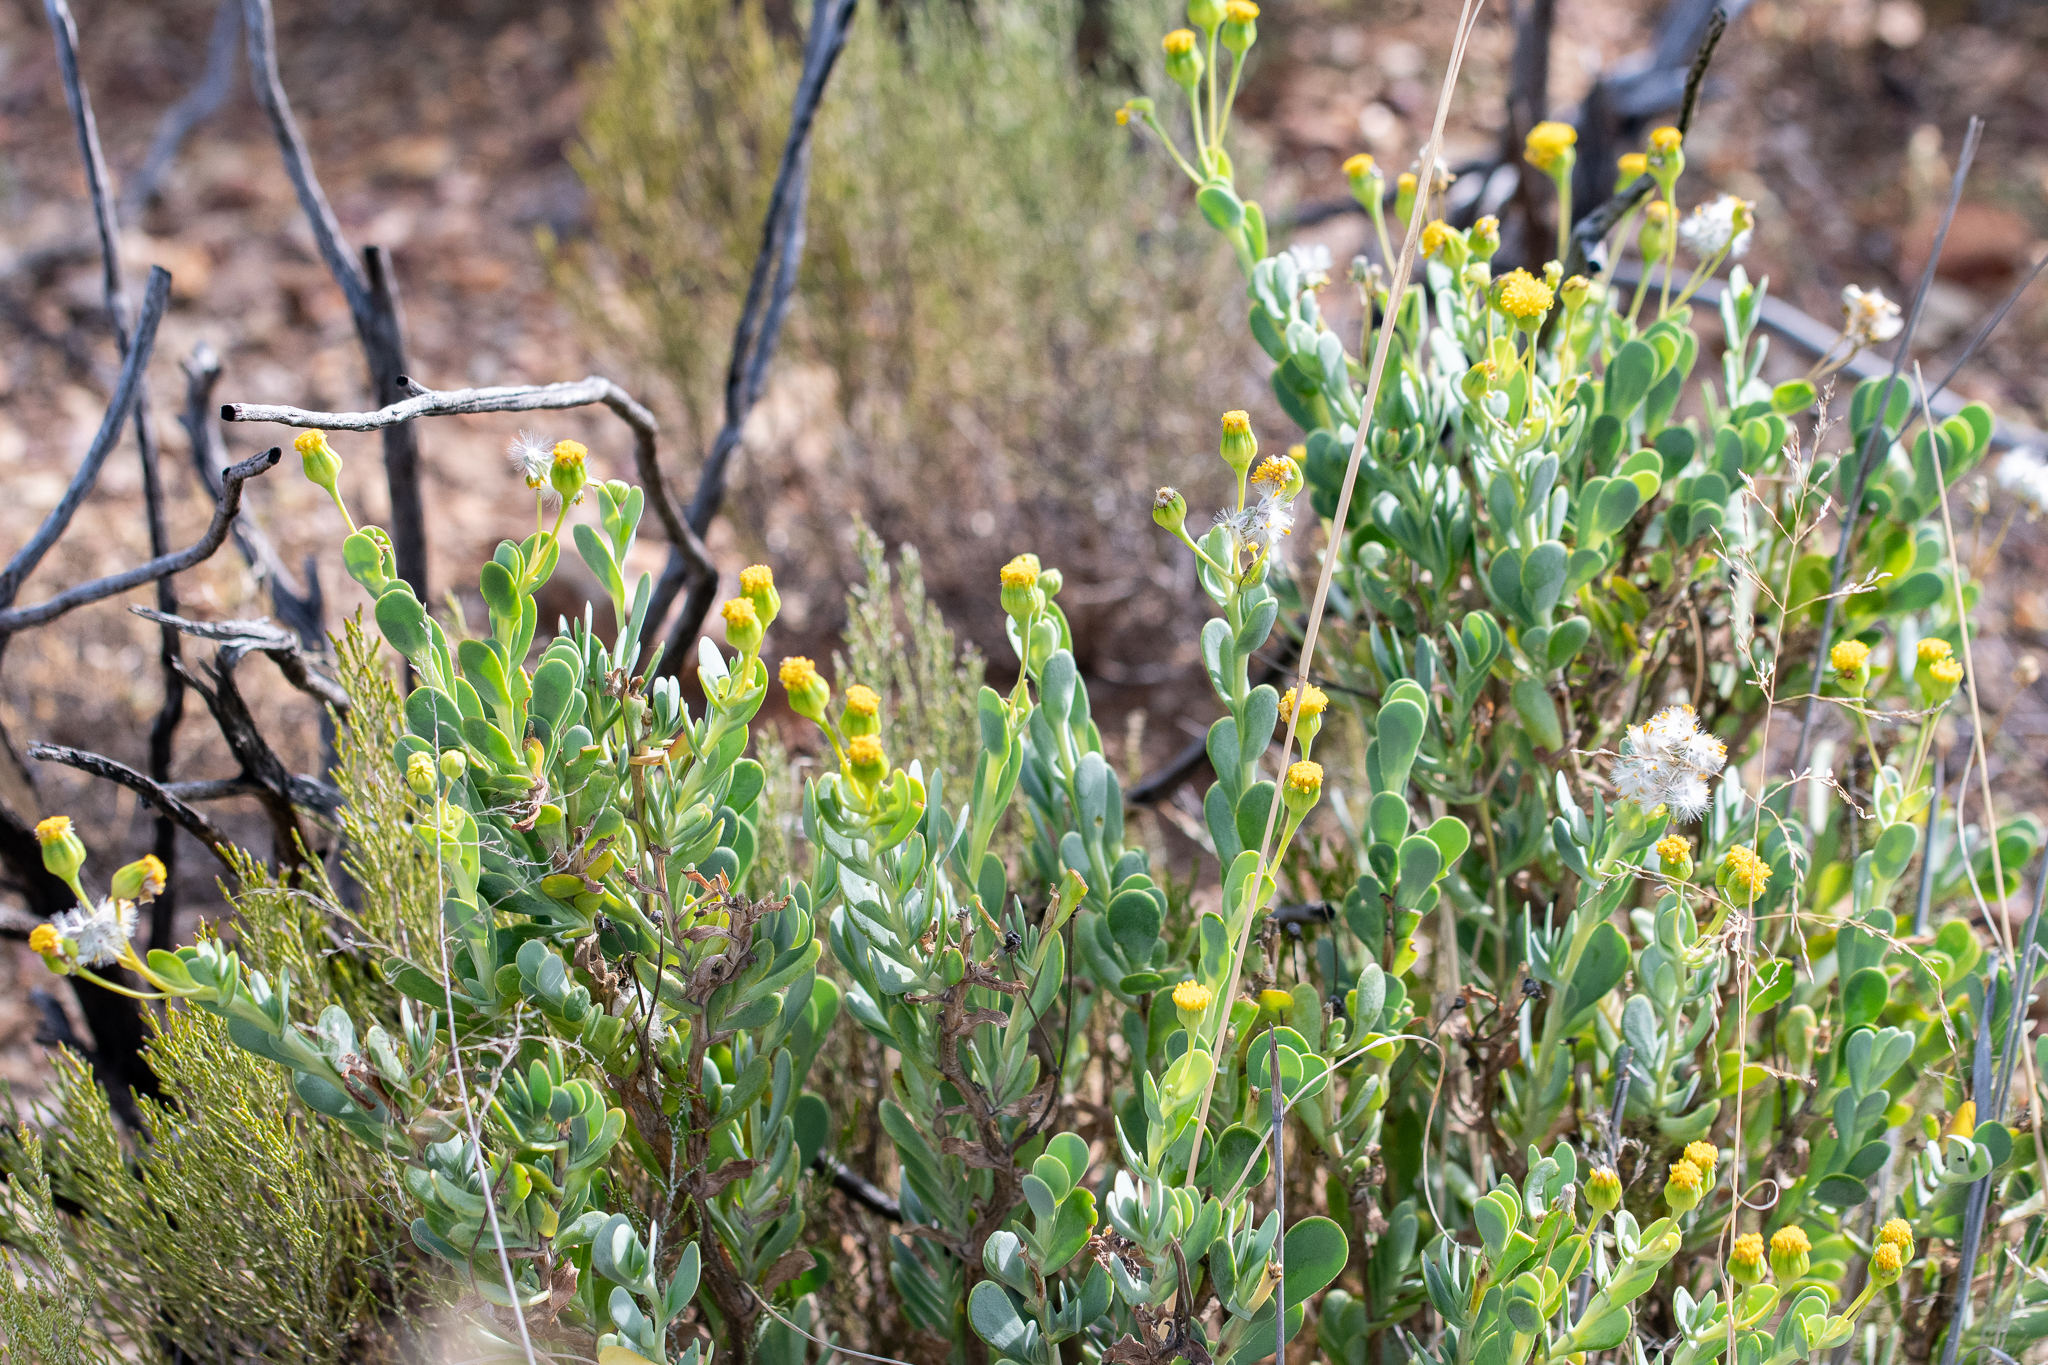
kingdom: Plantae
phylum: Tracheophyta
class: Magnoliopsida
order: Asterales
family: Asteraceae
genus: Hertia
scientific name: Hertia kraussii
